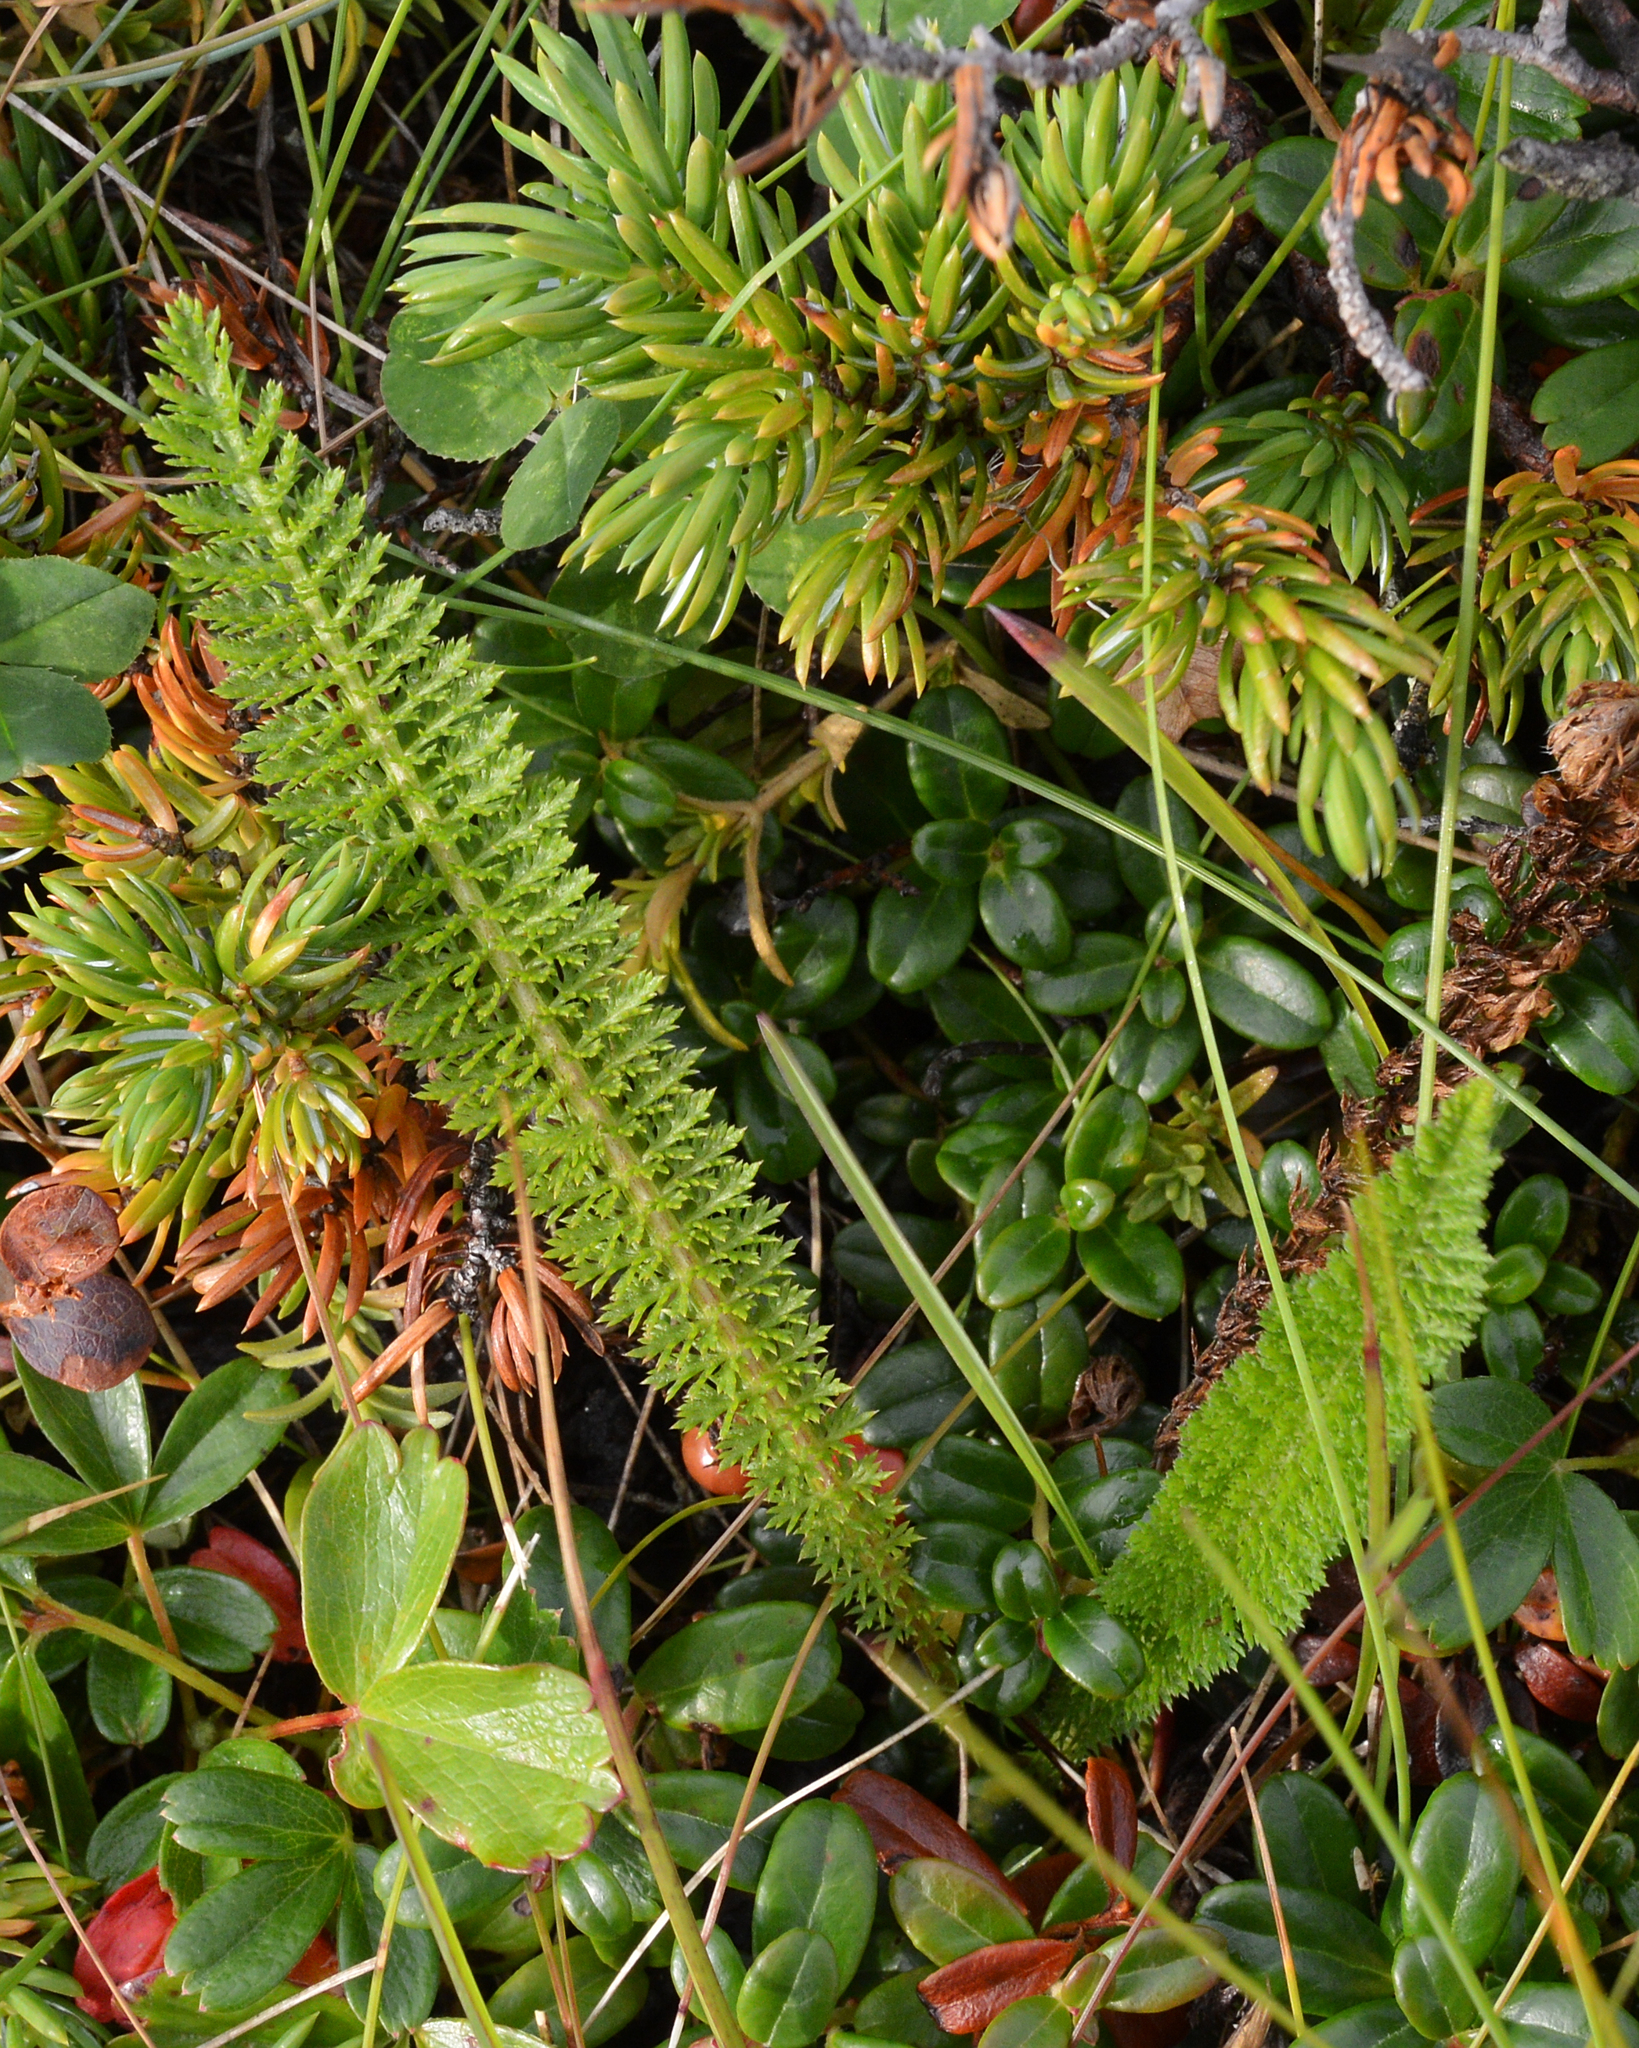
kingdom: Plantae
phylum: Tracheophyta
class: Magnoliopsida
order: Asterales
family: Asteraceae
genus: Achillea
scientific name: Achillea millefolium
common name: Yarrow
